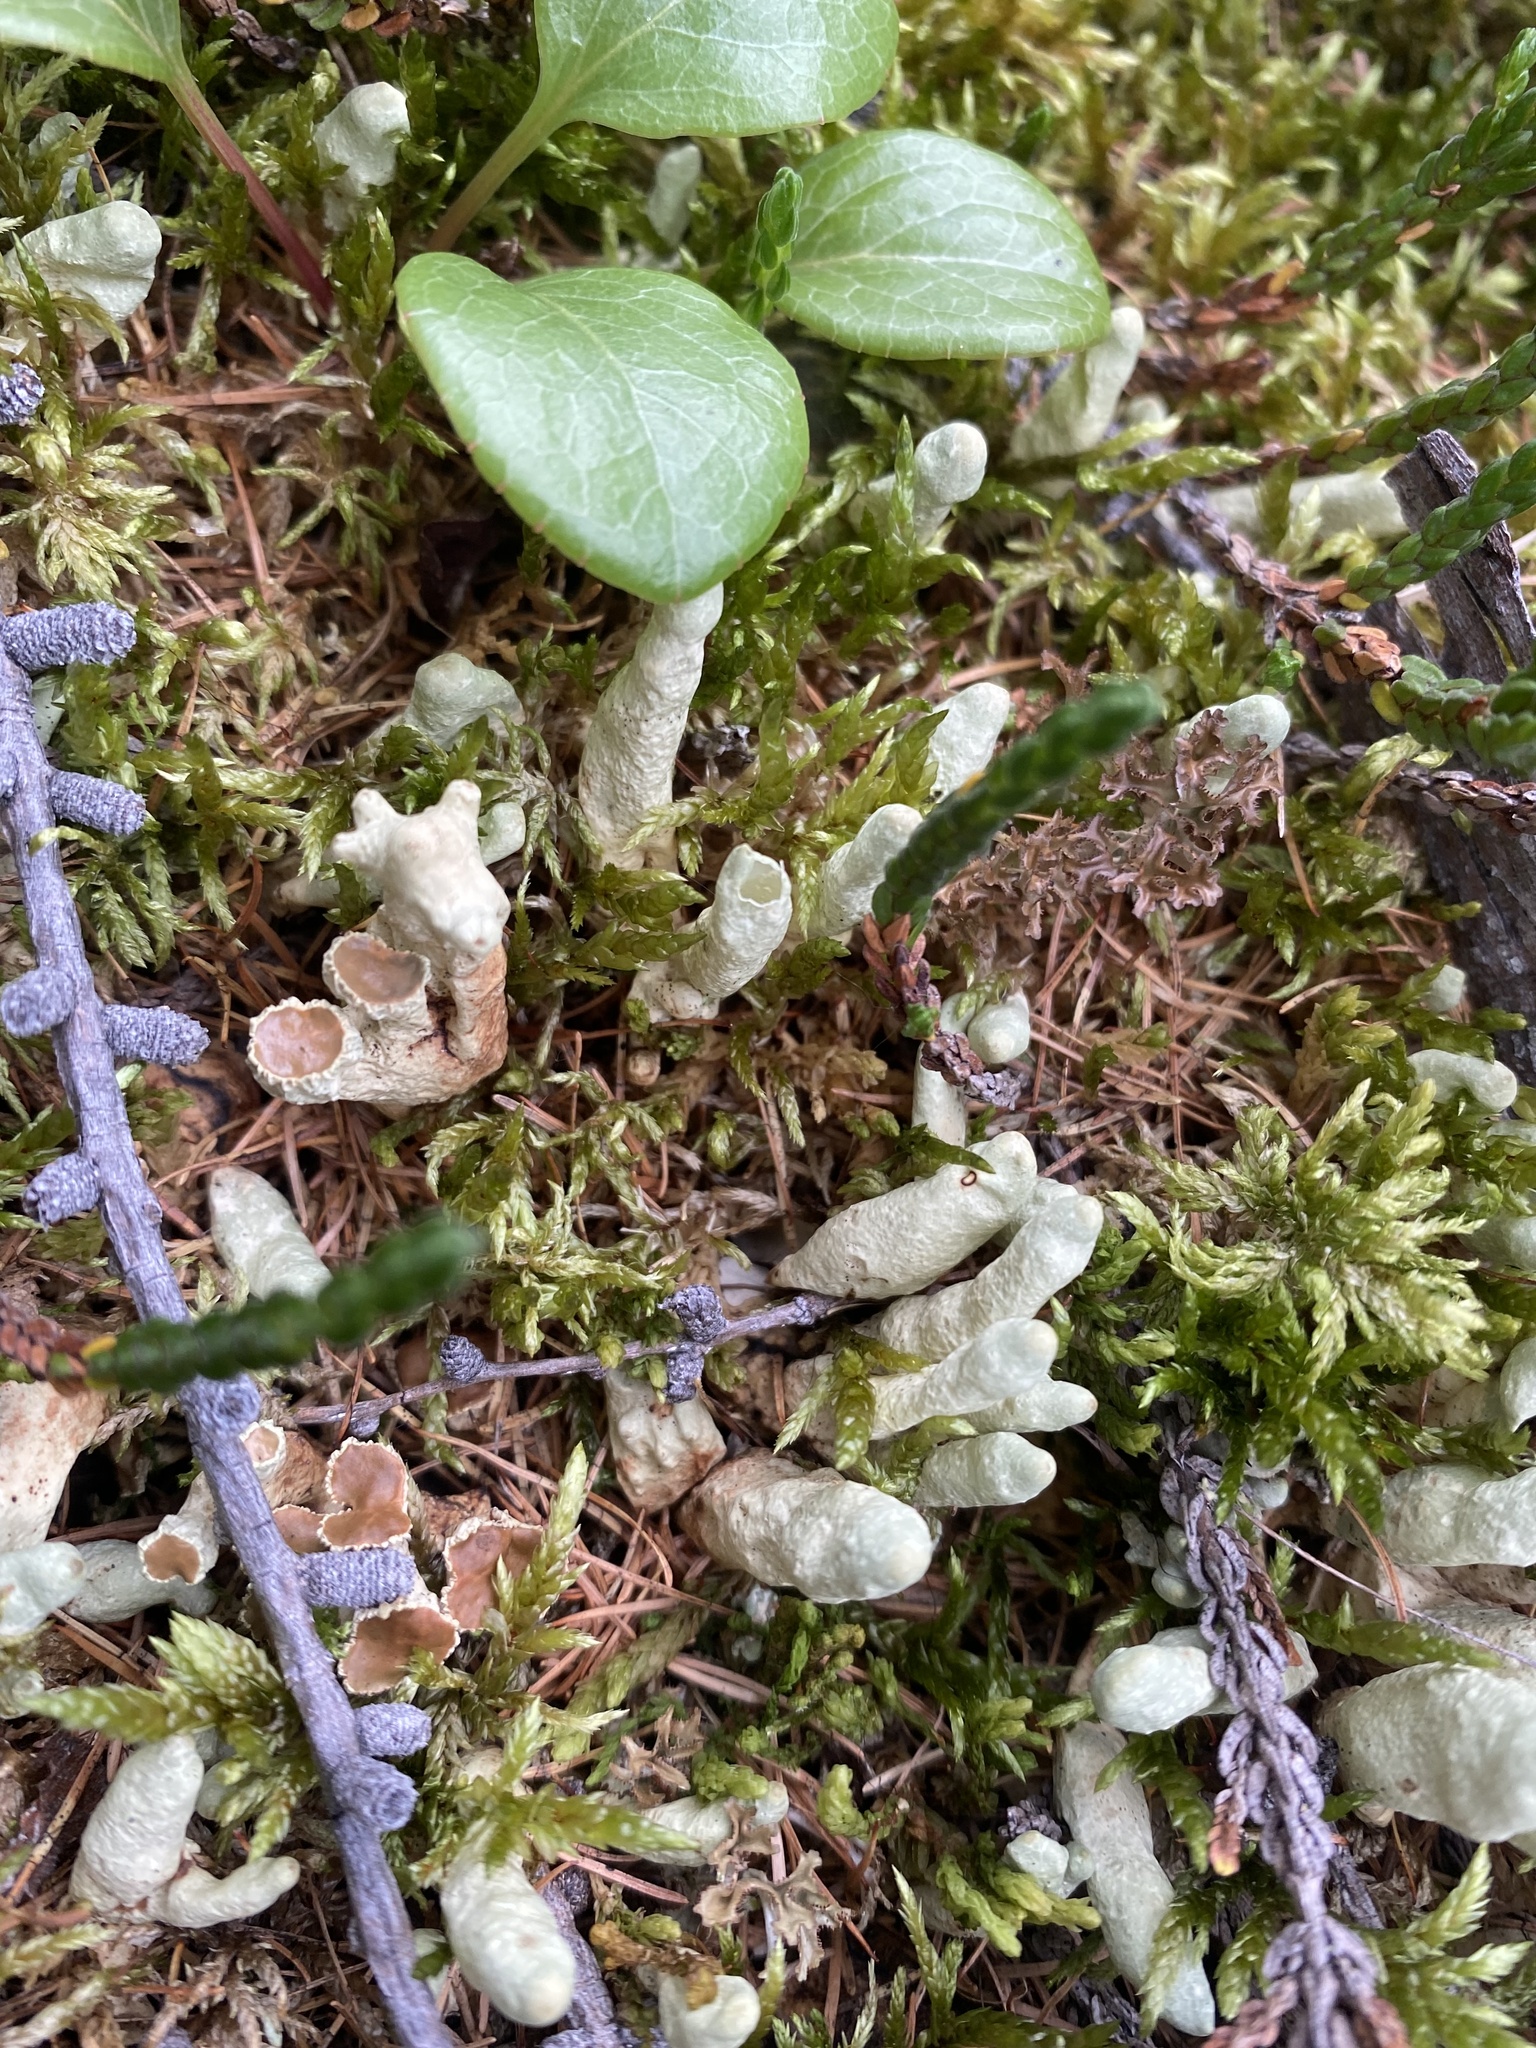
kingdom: Fungi
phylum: Ascomycota
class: Lecanoromycetes
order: Lecanorales
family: Parmeliaceae
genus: Dactylina
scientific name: Dactylina arctica
